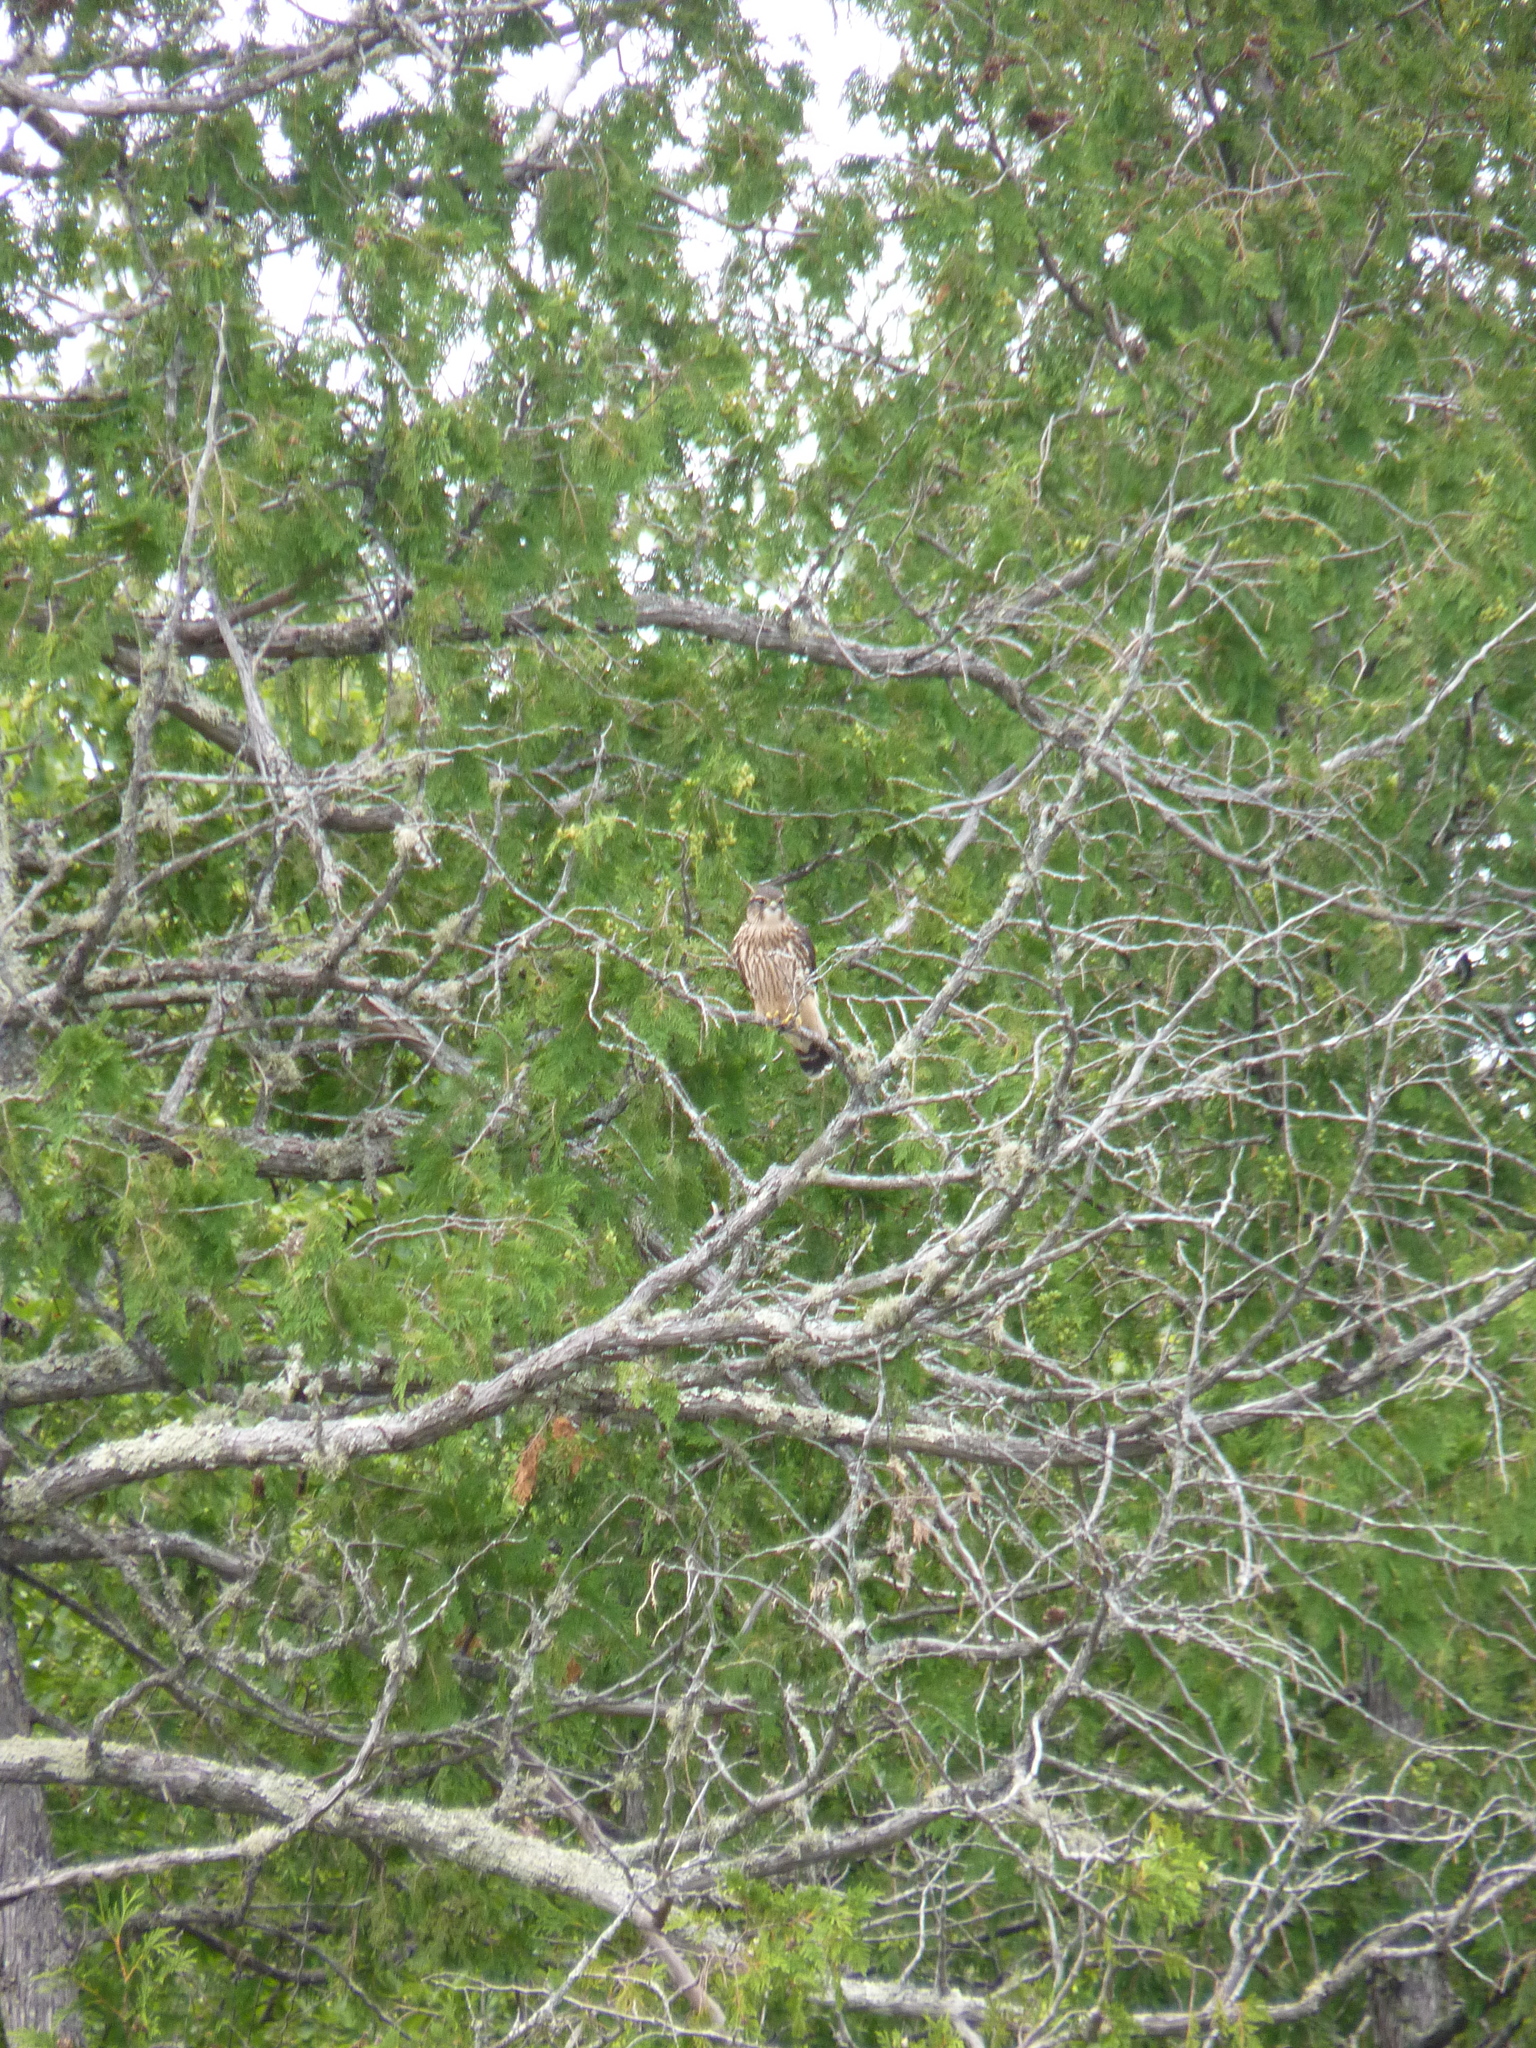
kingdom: Animalia
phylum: Chordata
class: Aves
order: Falconiformes
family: Falconidae
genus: Falco
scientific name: Falco columbarius
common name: Merlin
